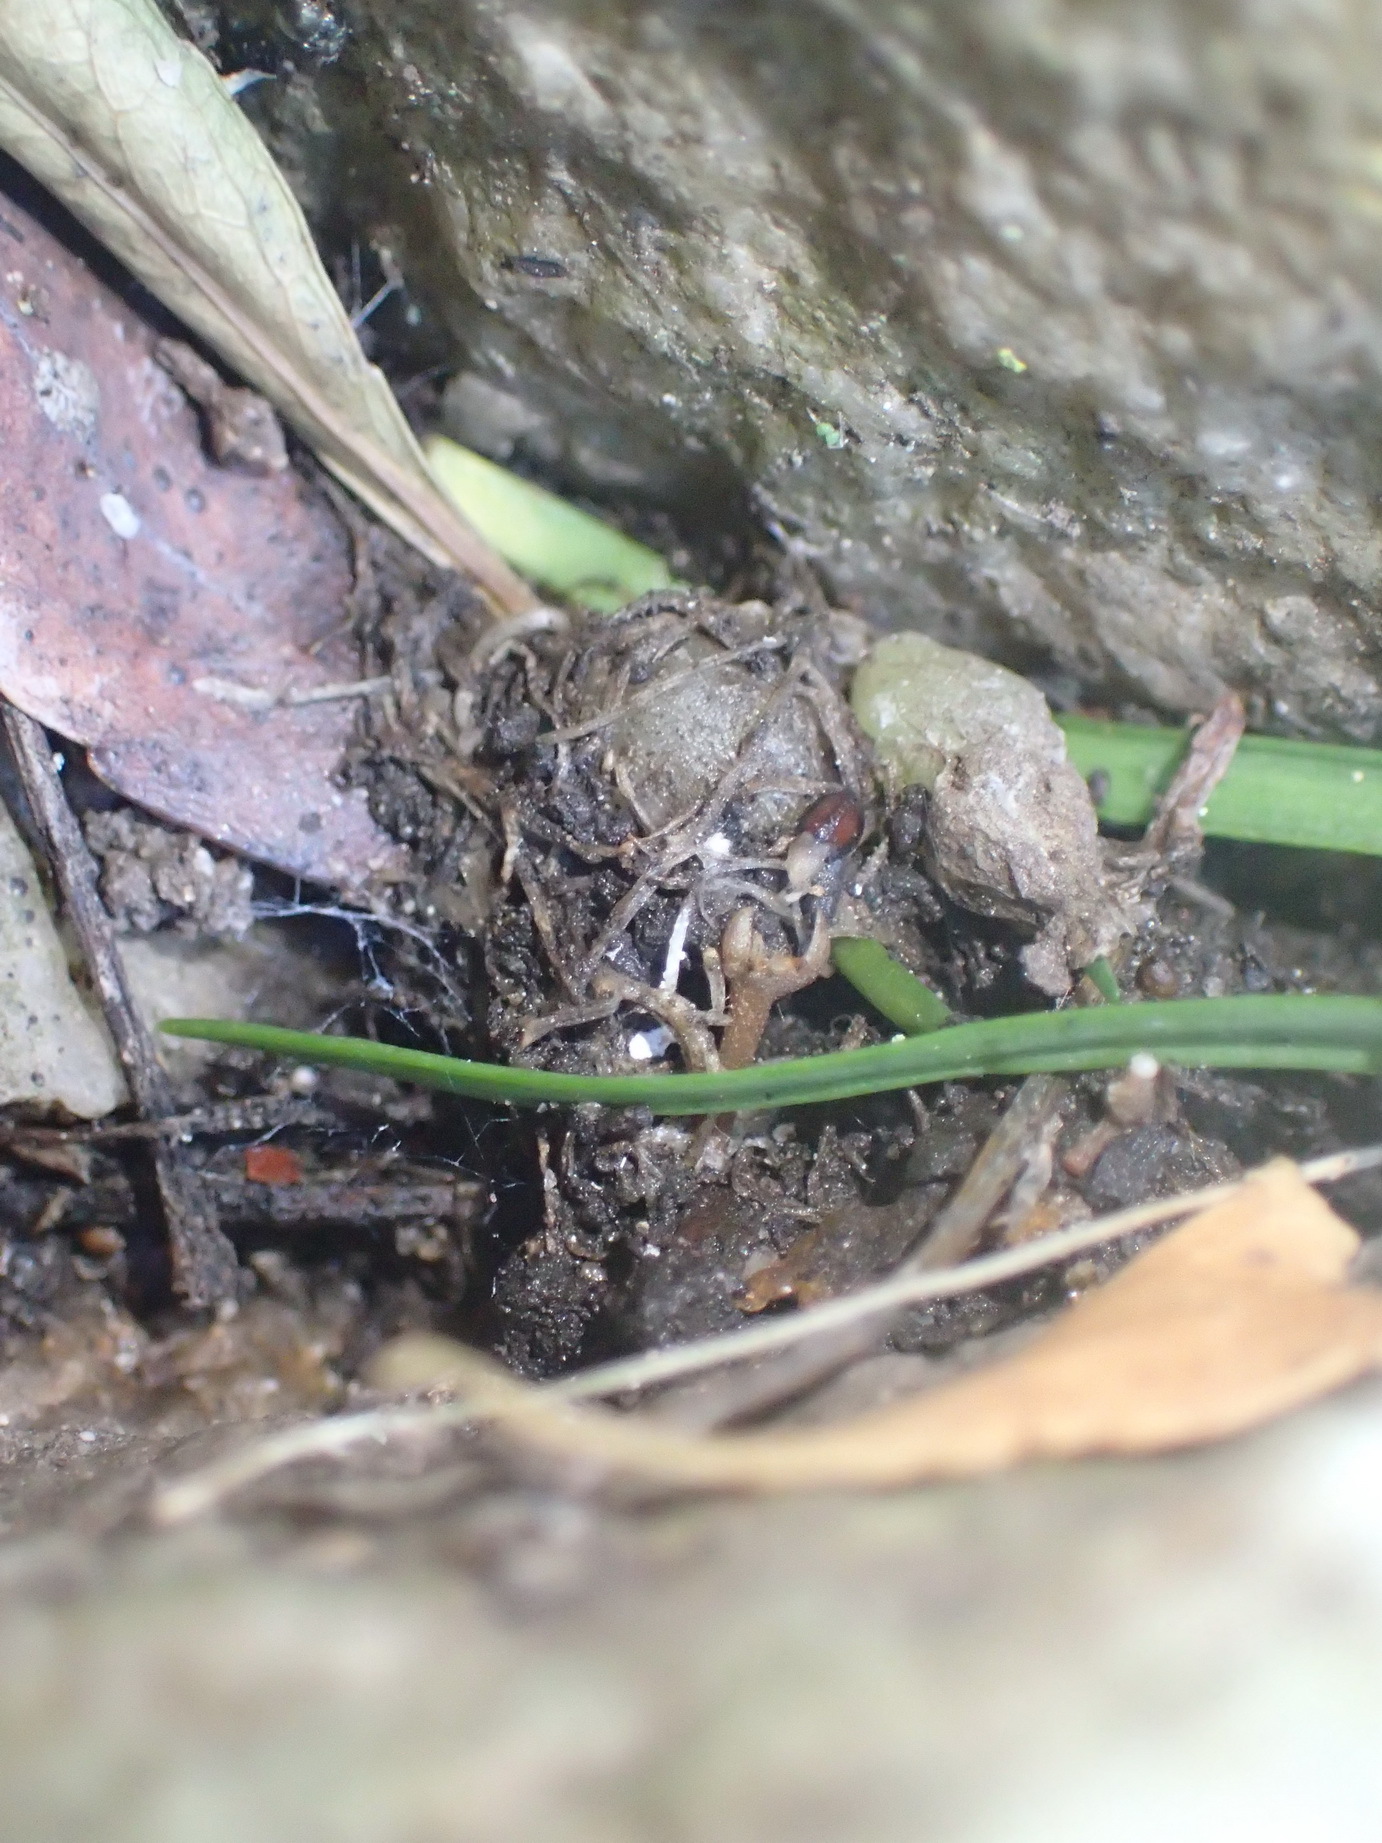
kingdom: Plantae
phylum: Tracheophyta
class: Liliopsida
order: Asparagales
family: Asparagaceae
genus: Drimia
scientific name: Drimia cyanelloides
